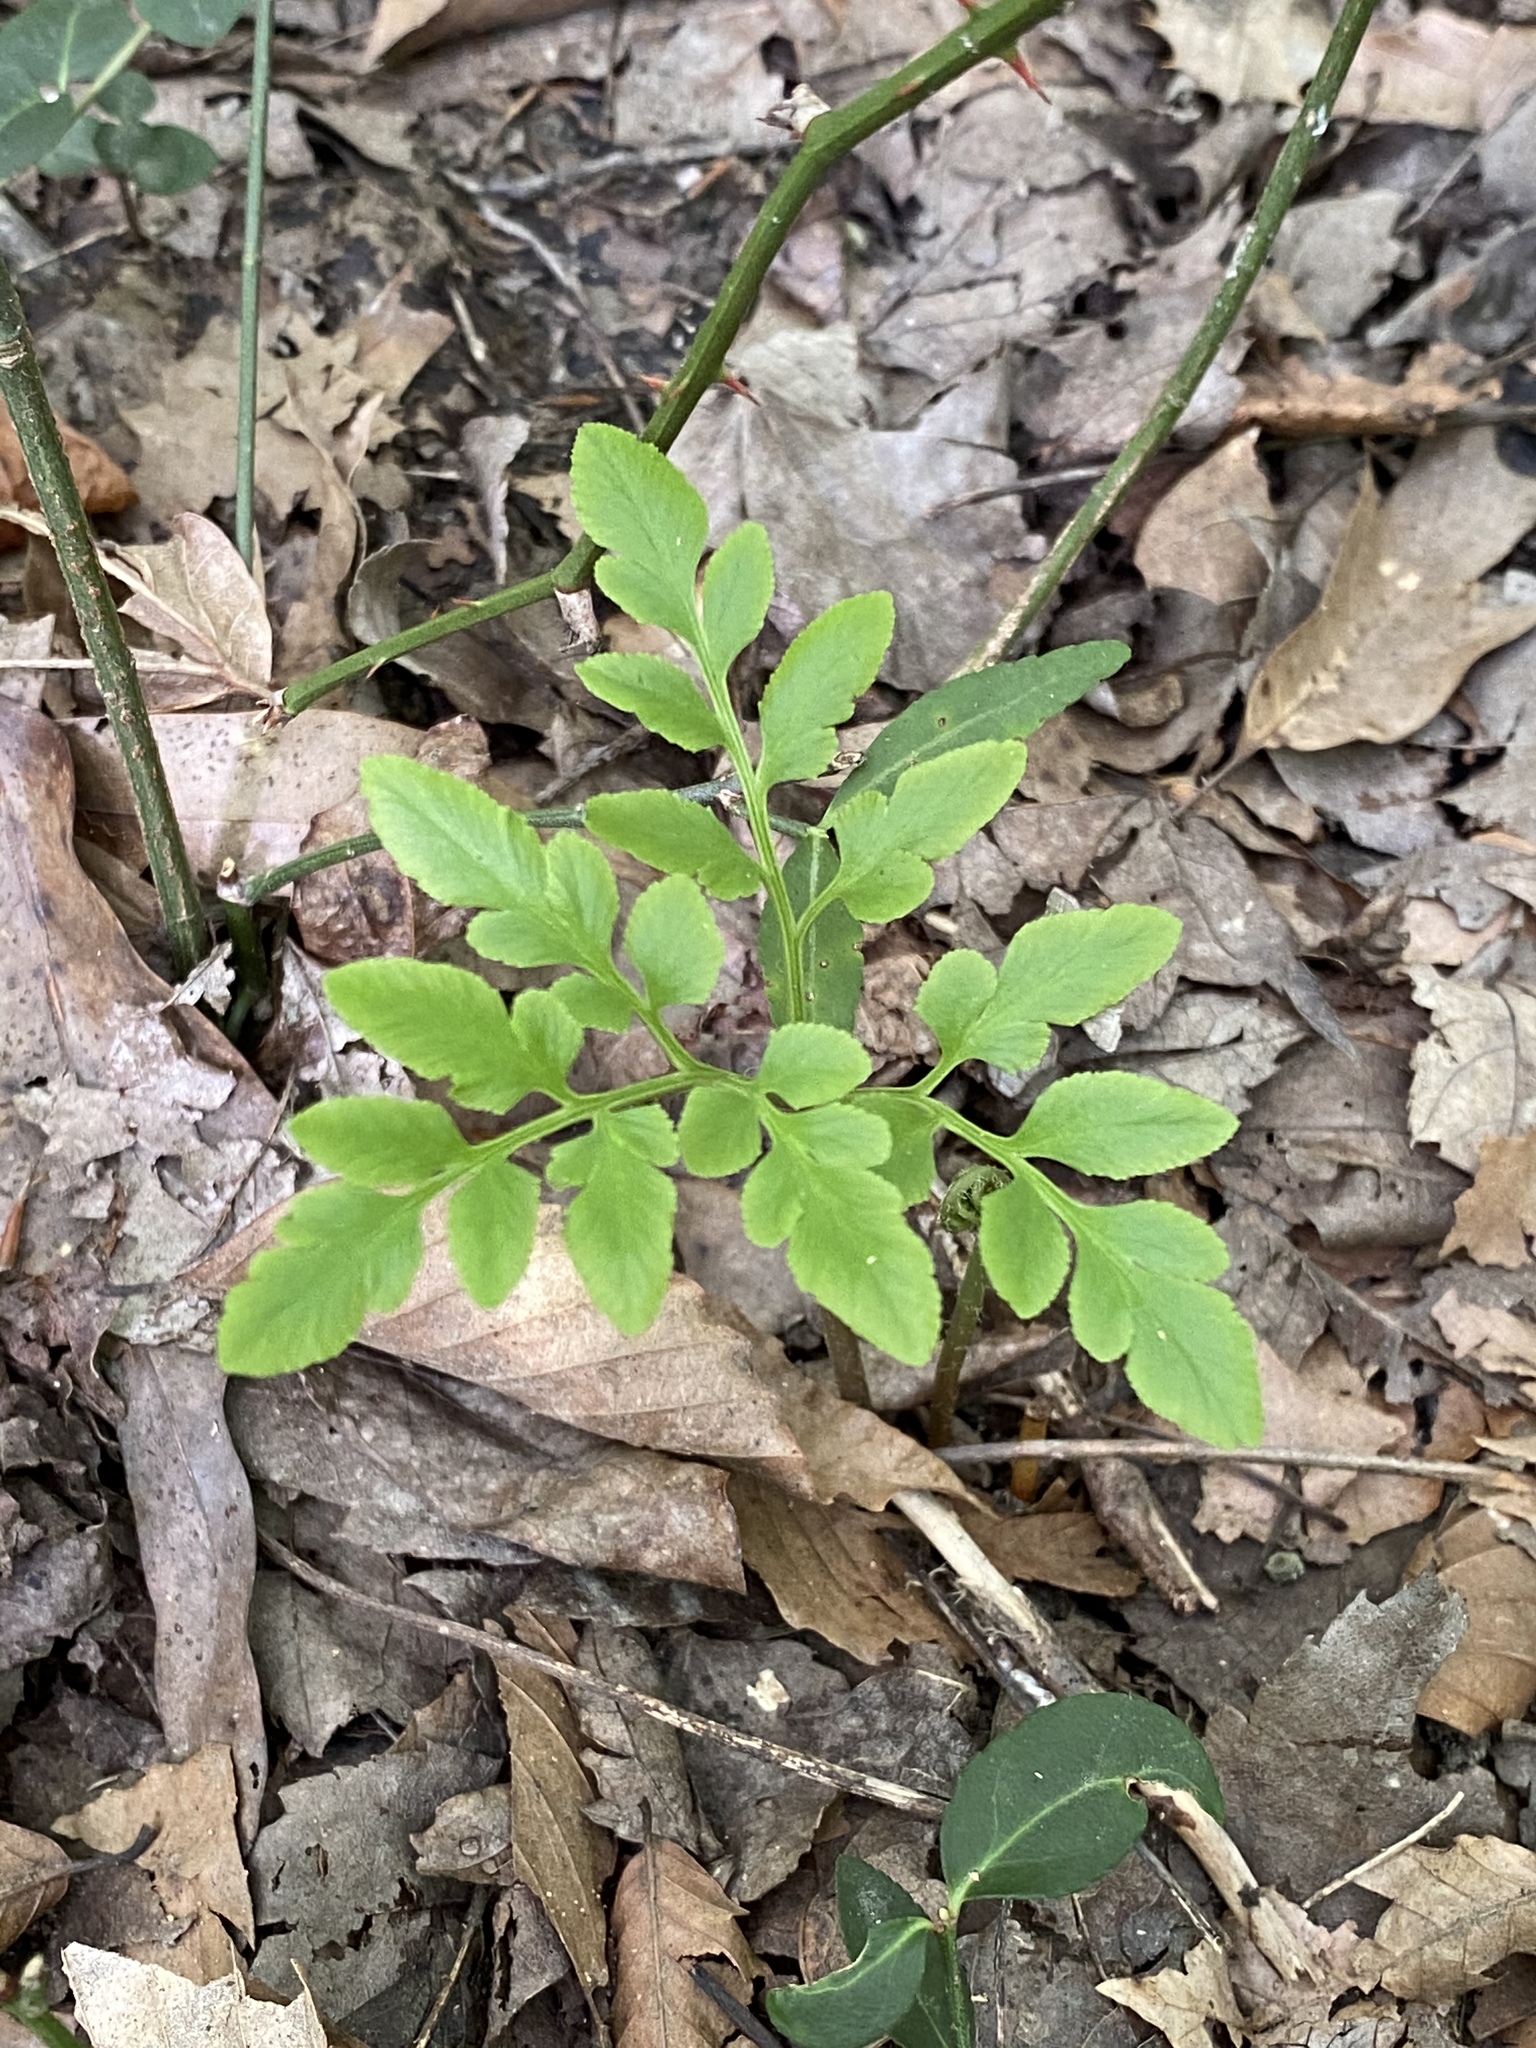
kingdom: Plantae
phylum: Tracheophyta
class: Polypodiopsida
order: Ophioglossales
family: Ophioglossaceae
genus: Sceptridium
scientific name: Sceptridium dissectum
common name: Cut-leaved grapefern
